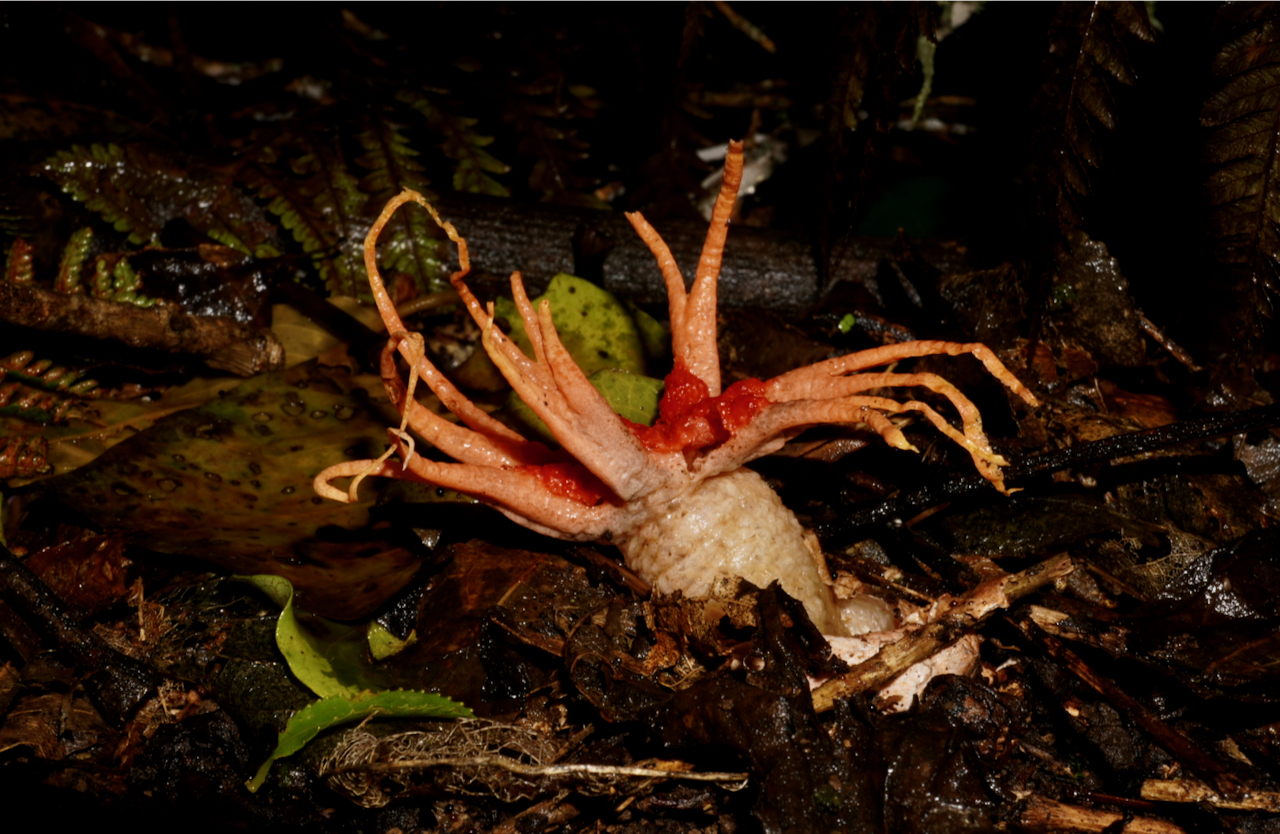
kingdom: Fungi
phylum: Basidiomycota
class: Agaricomycetes
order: Phallales
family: Phallaceae
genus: Aseroe
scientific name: Aseroe rubra
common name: Starfish fungus
